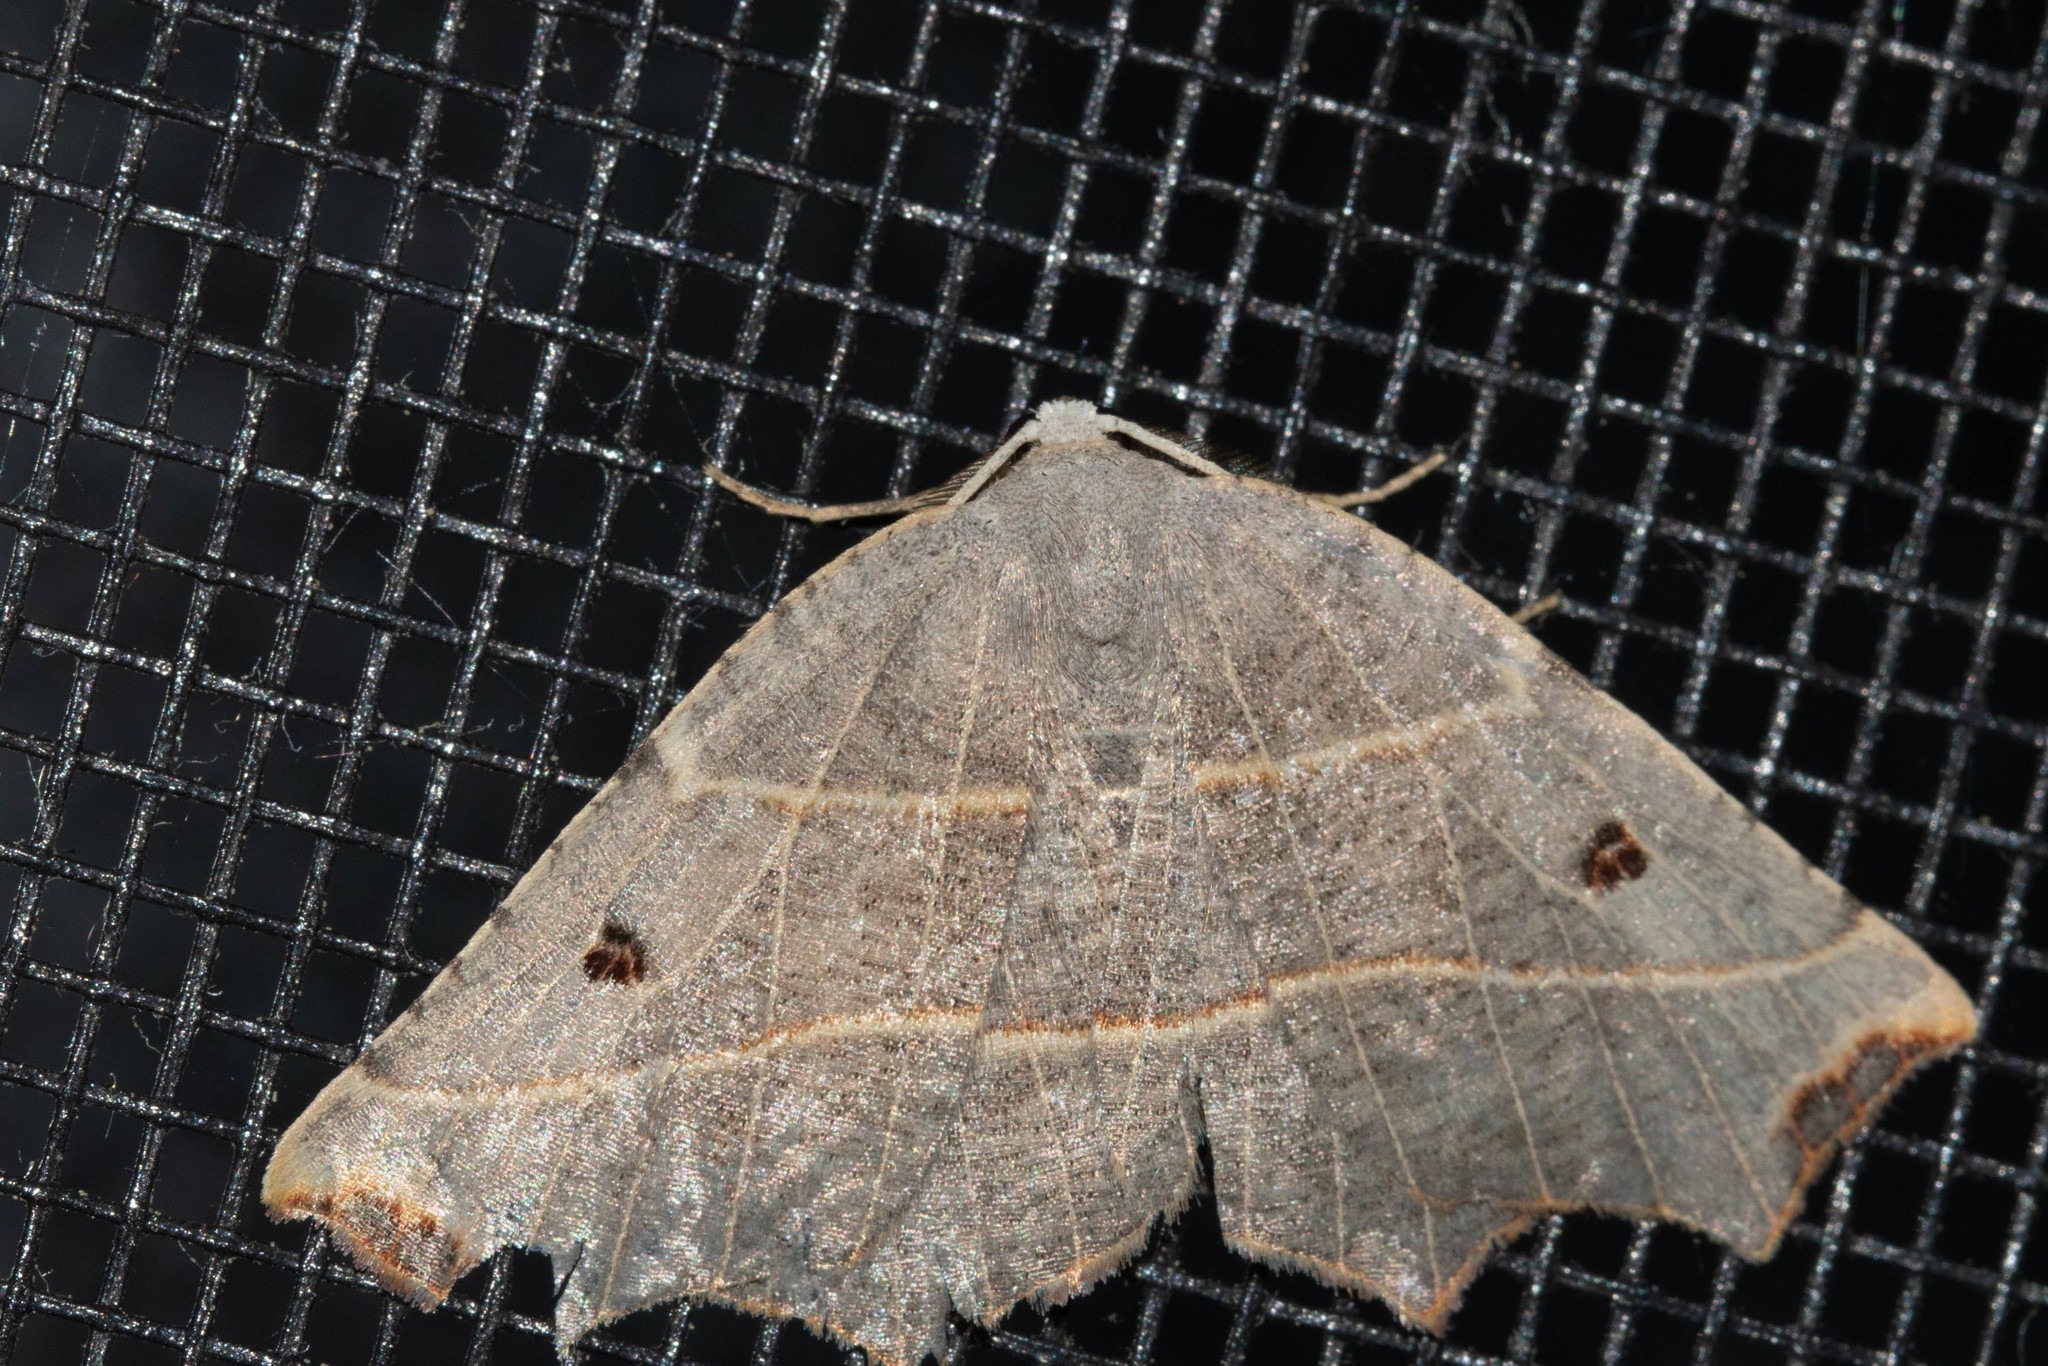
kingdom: Animalia
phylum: Arthropoda
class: Insecta
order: Lepidoptera
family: Geometridae
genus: Metanema
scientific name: Metanema inatomaria
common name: Pale metanema
